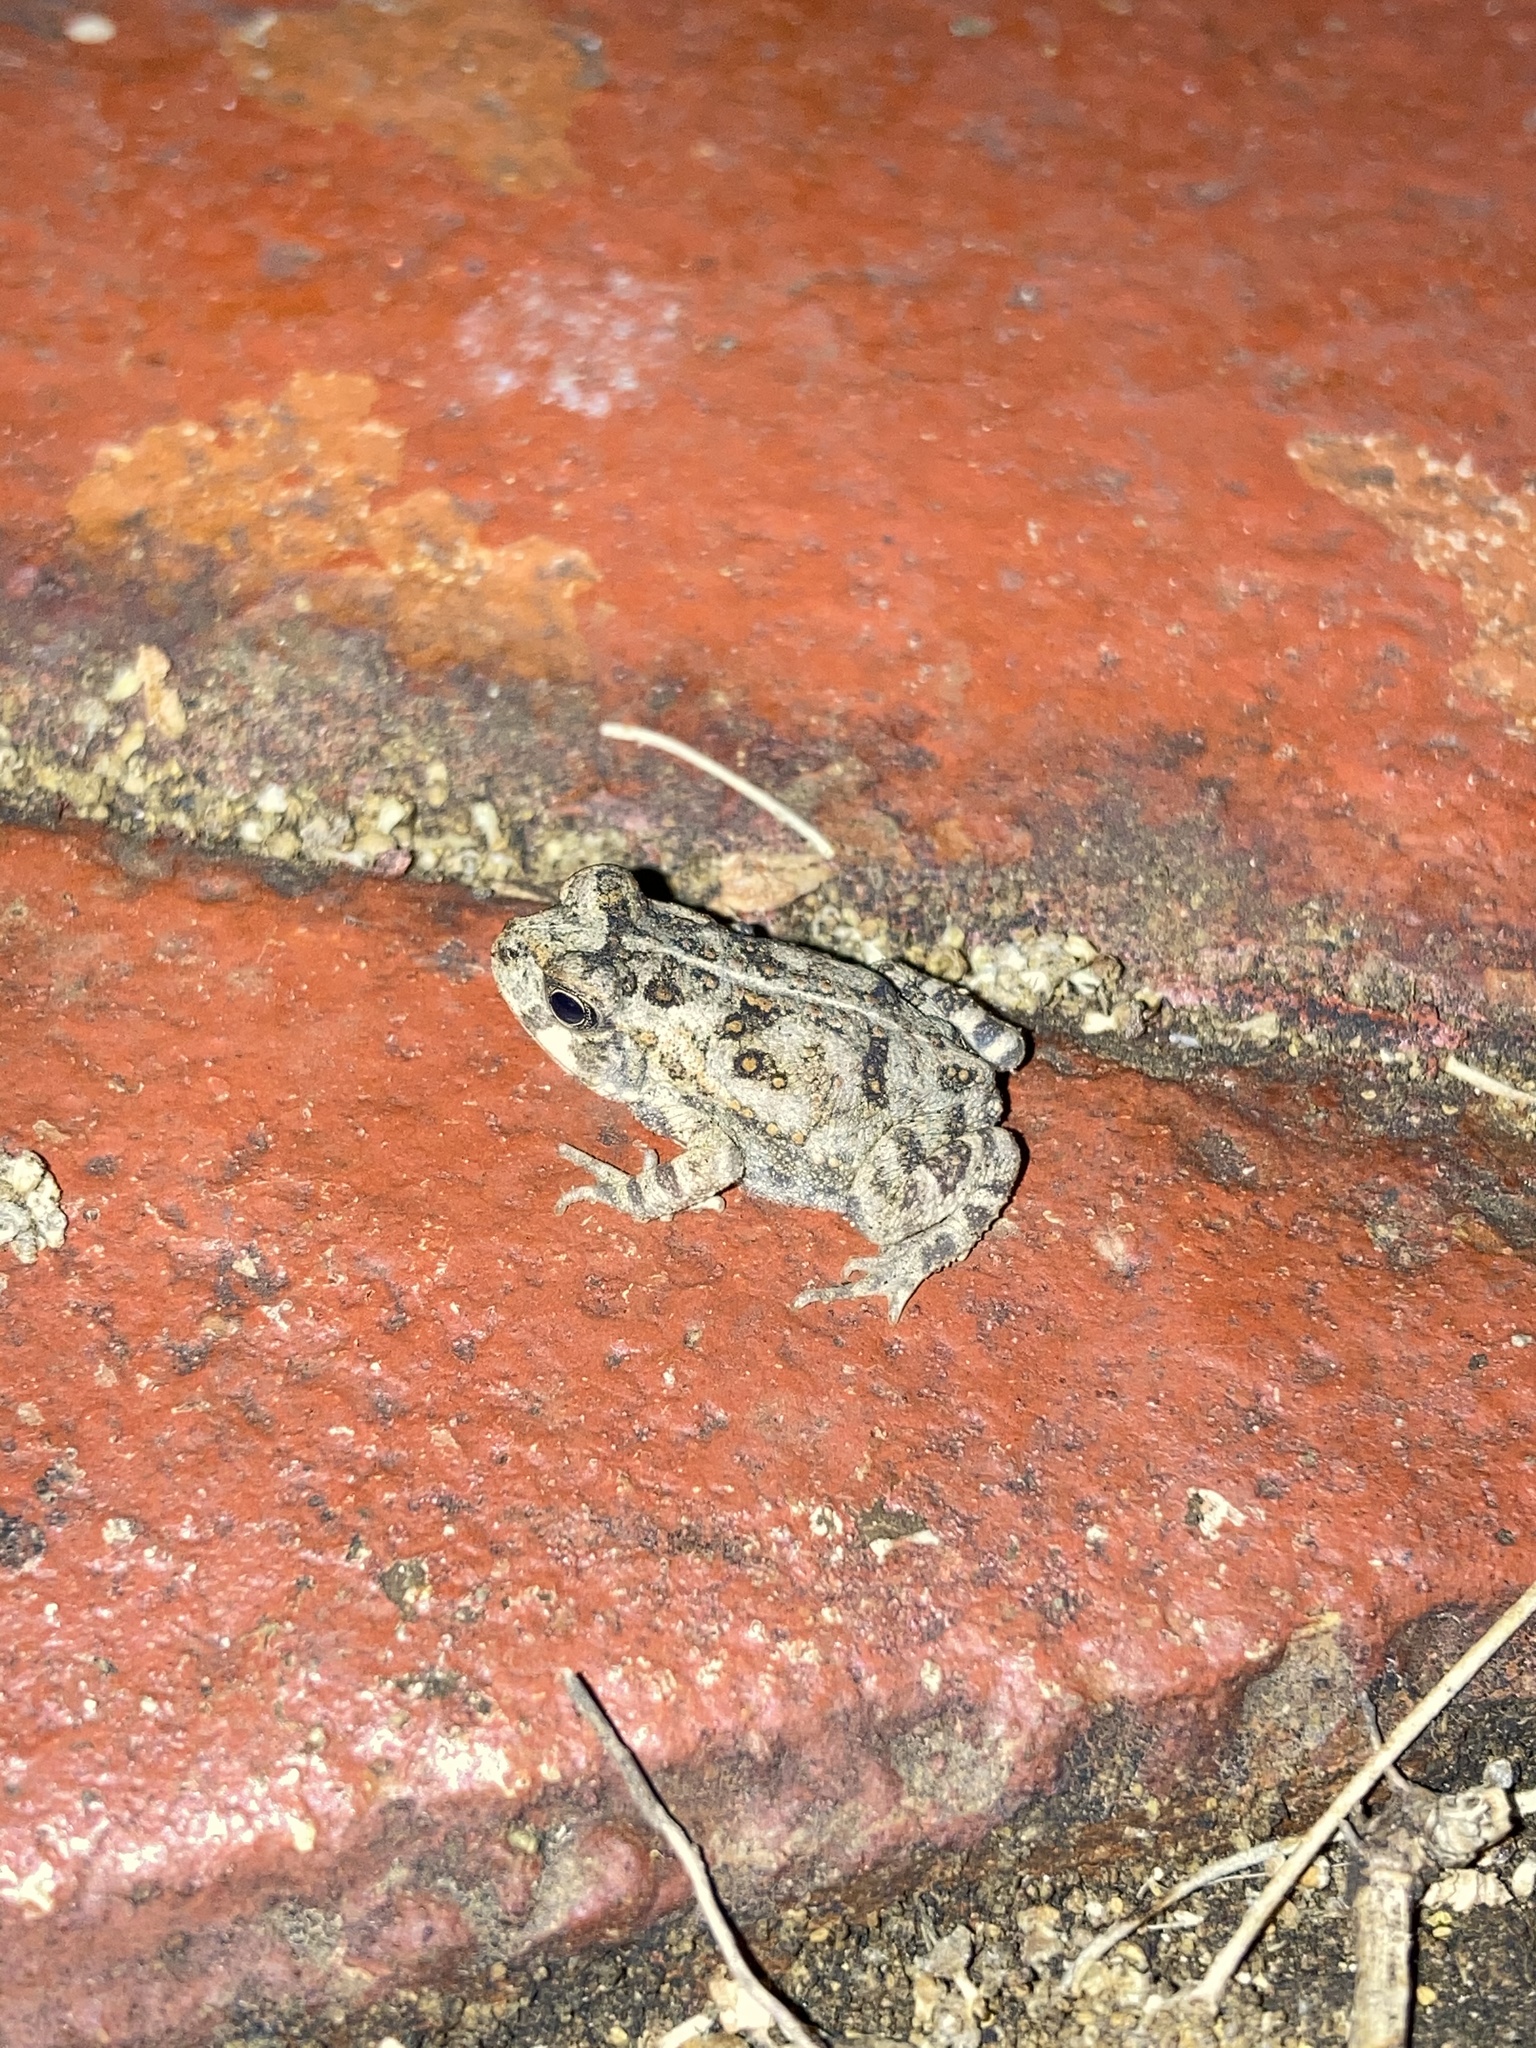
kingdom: Animalia
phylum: Chordata
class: Amphibia
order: Anura
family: Bufonidae
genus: Rhinella
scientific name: Rhinella marina
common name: Cane toad
